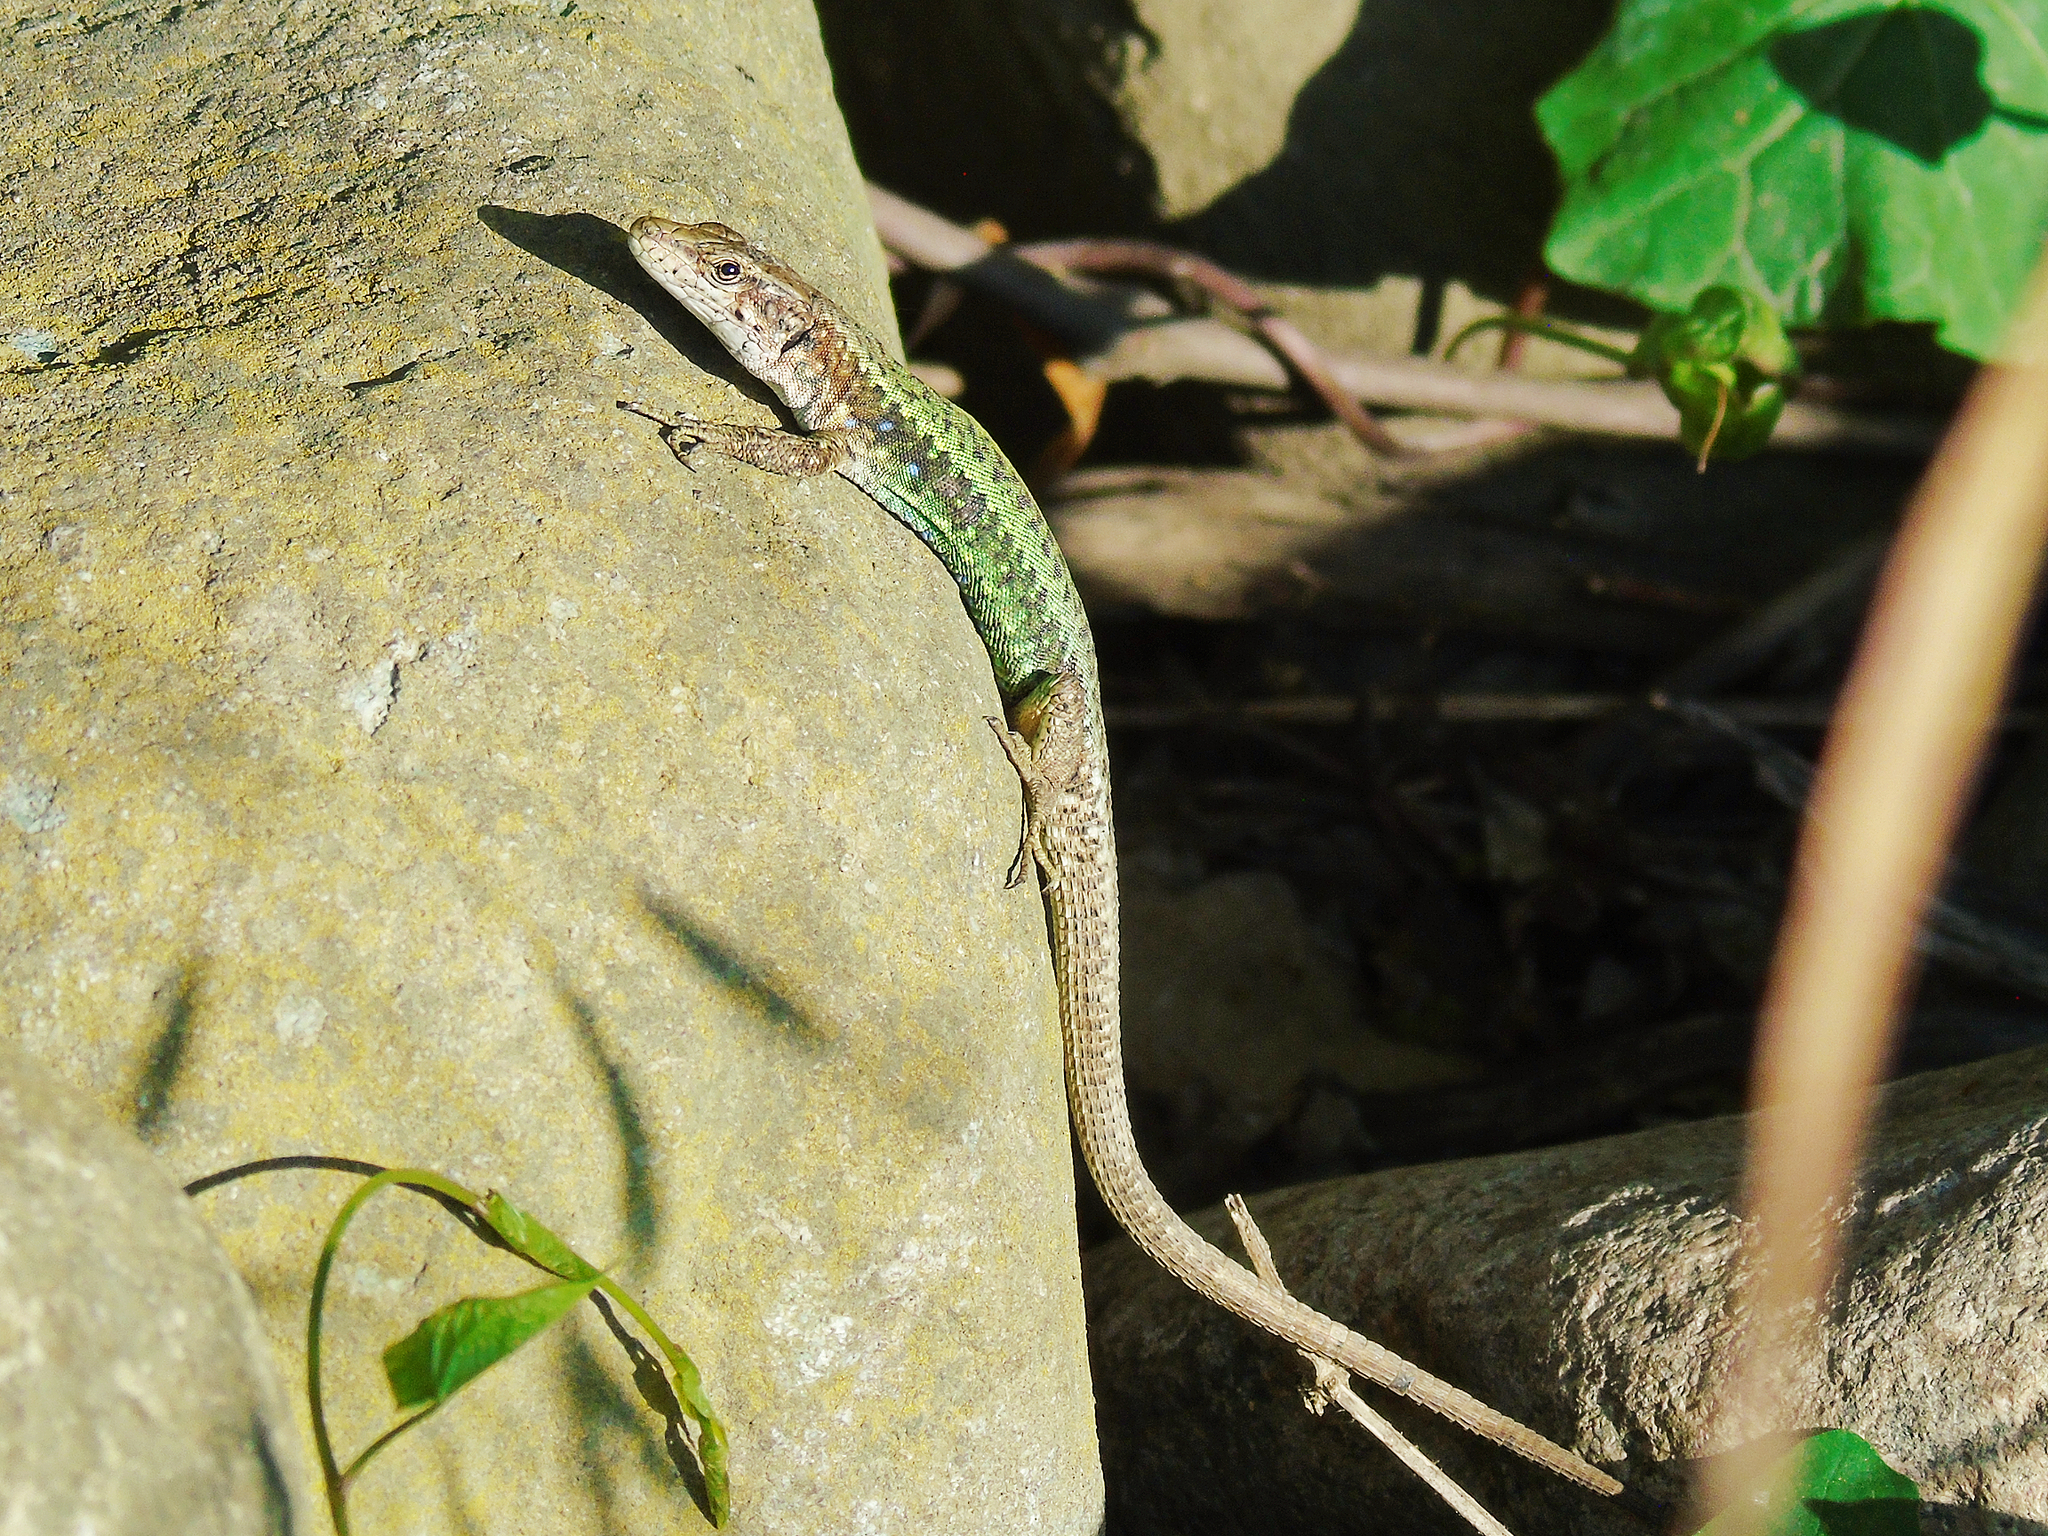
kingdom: Animalia
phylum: Chordata
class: Squamata
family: Lacertidae
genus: Darevskia
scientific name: Darevskia rudis
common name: Spiny-tailed lizard
